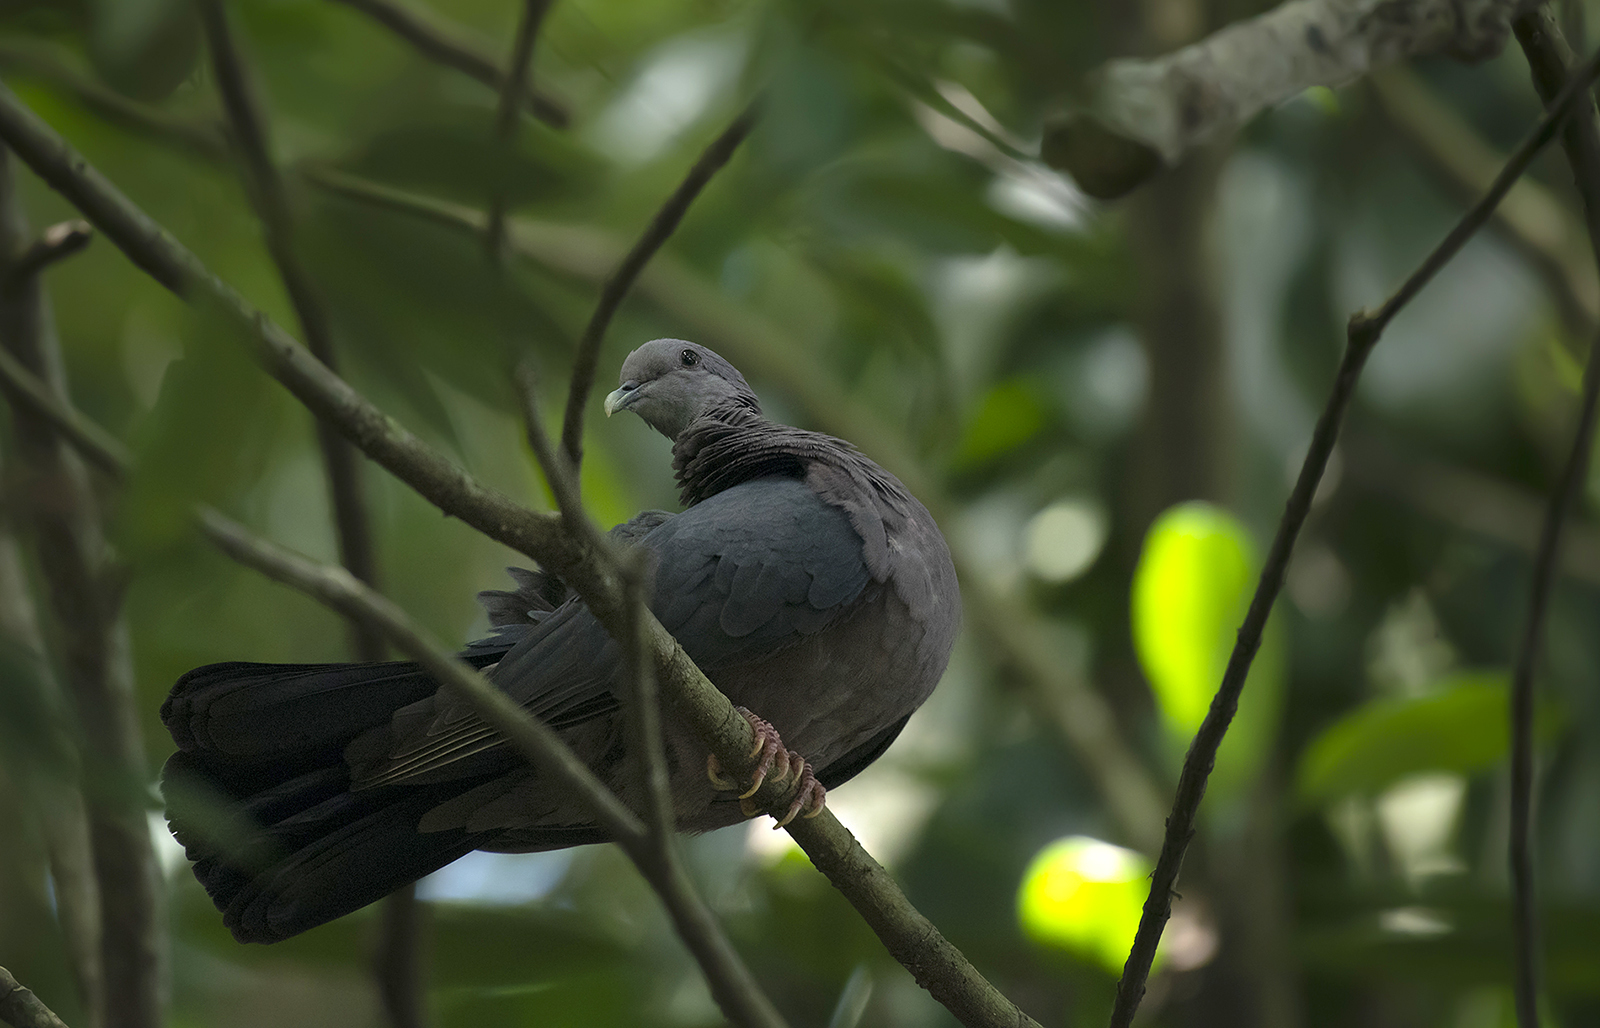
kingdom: Animalia
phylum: Chordata
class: Aves
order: Columbiformes
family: Columbidae
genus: Columba
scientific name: Columba torringtoniae
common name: Sri lanka wood pigeon
